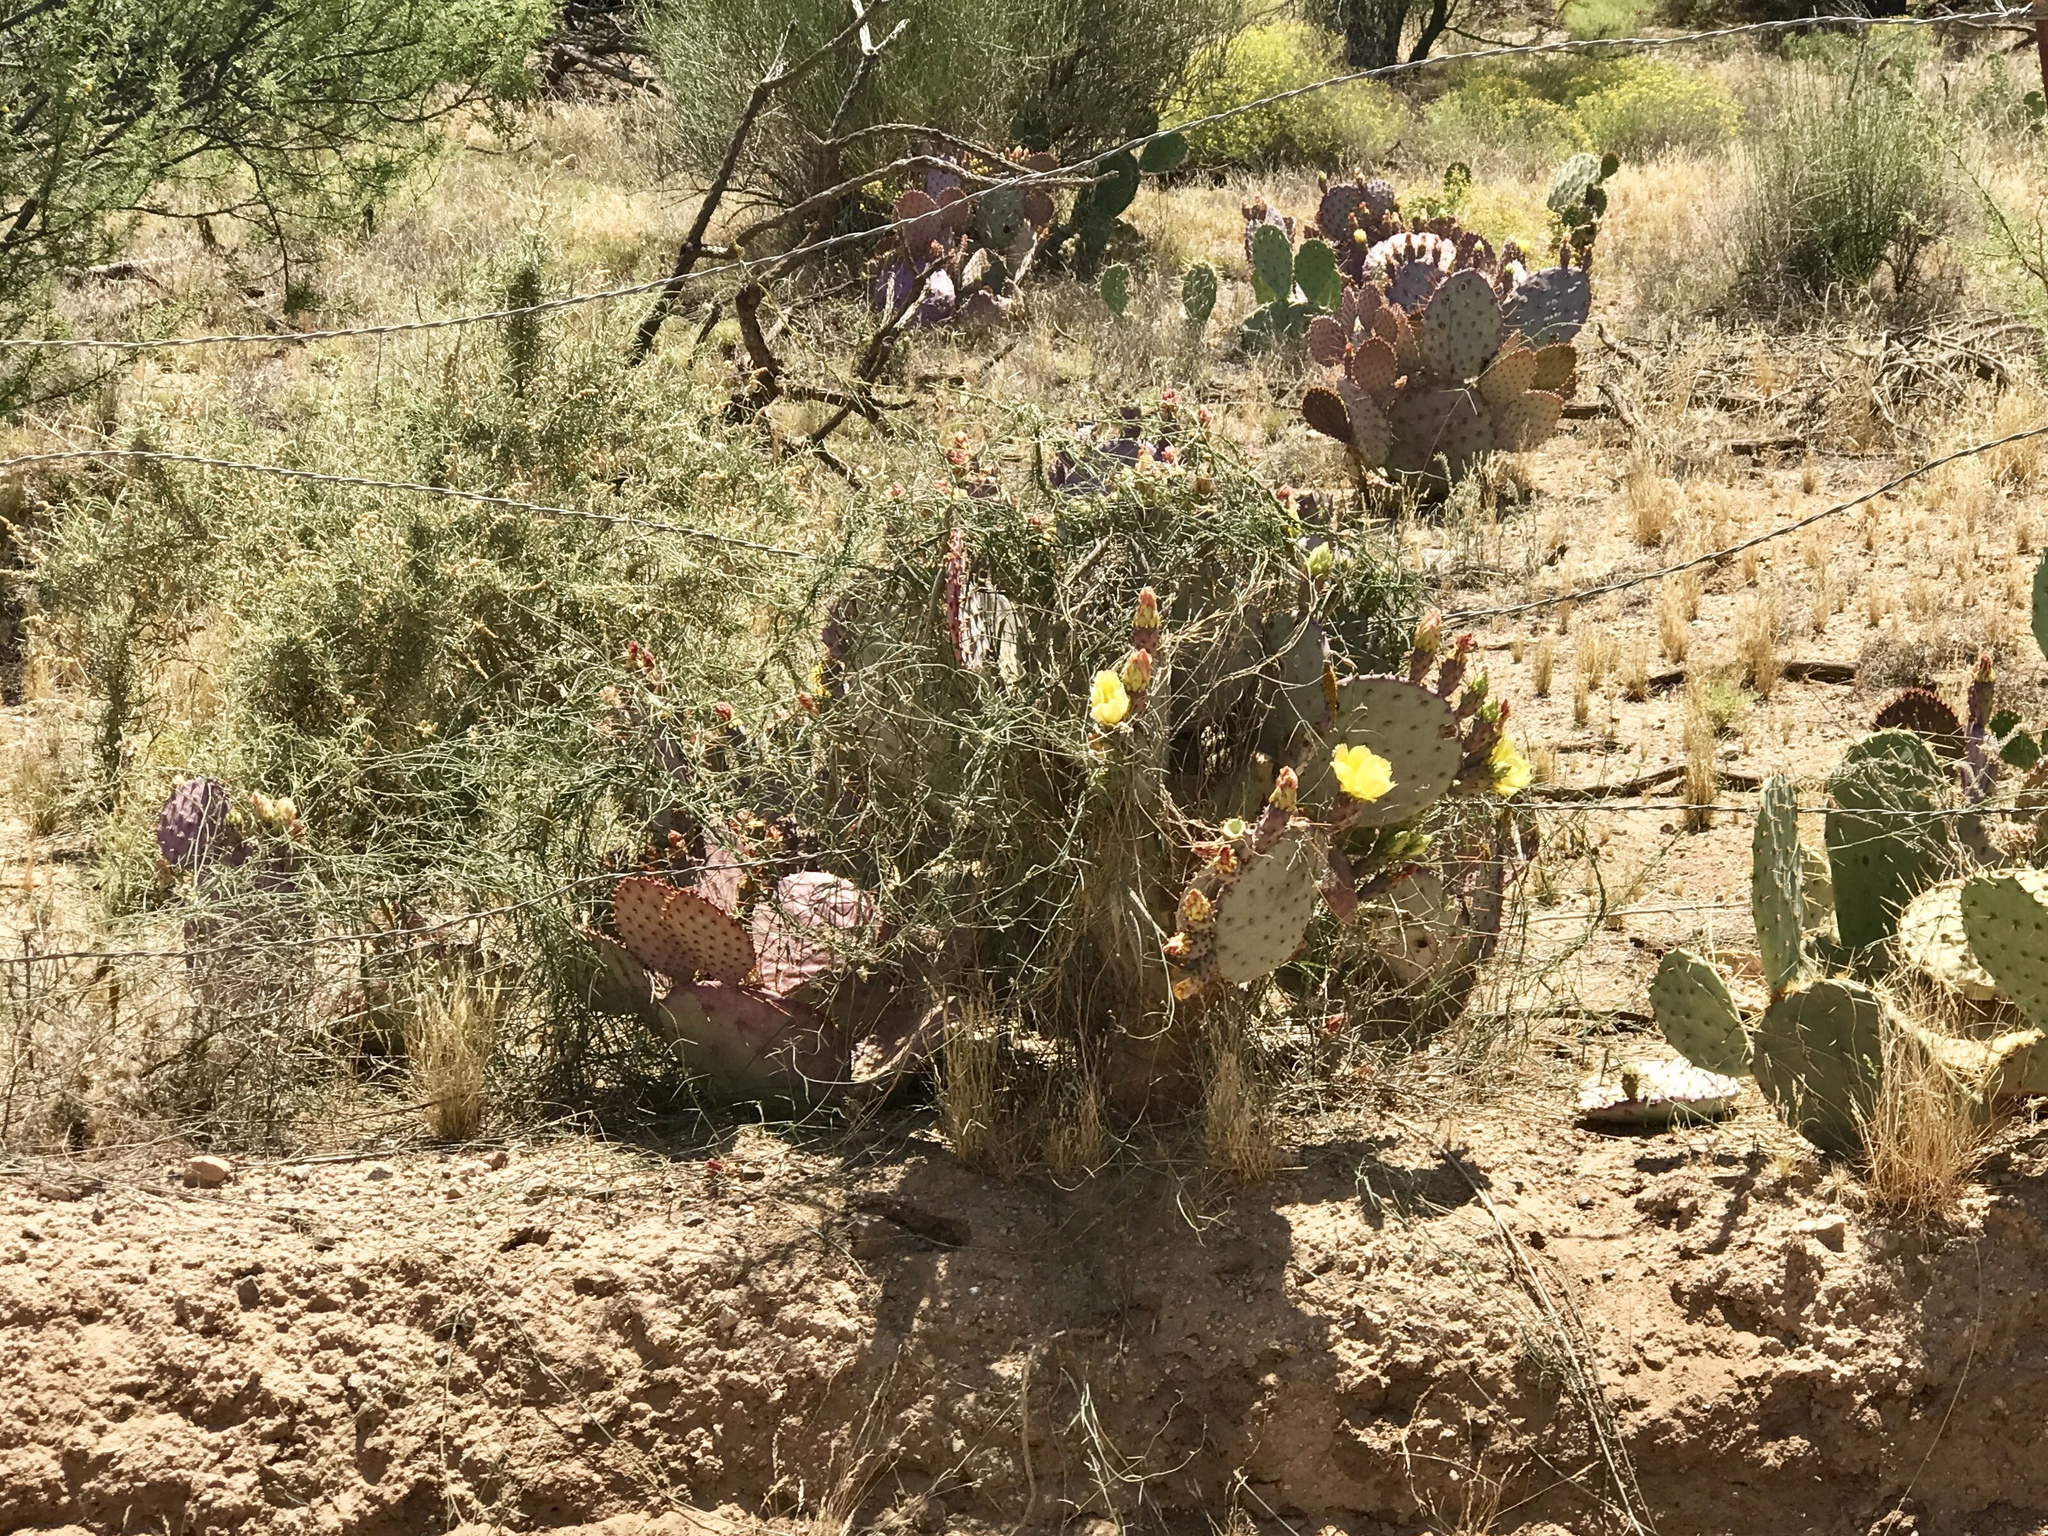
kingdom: Plantae
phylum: Tracheophyta
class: Magnoliopsida
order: Caryophyllales
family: Cactaceae
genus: Opuntia
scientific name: Opuntia gosseliniana
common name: Violet prickly-pear
